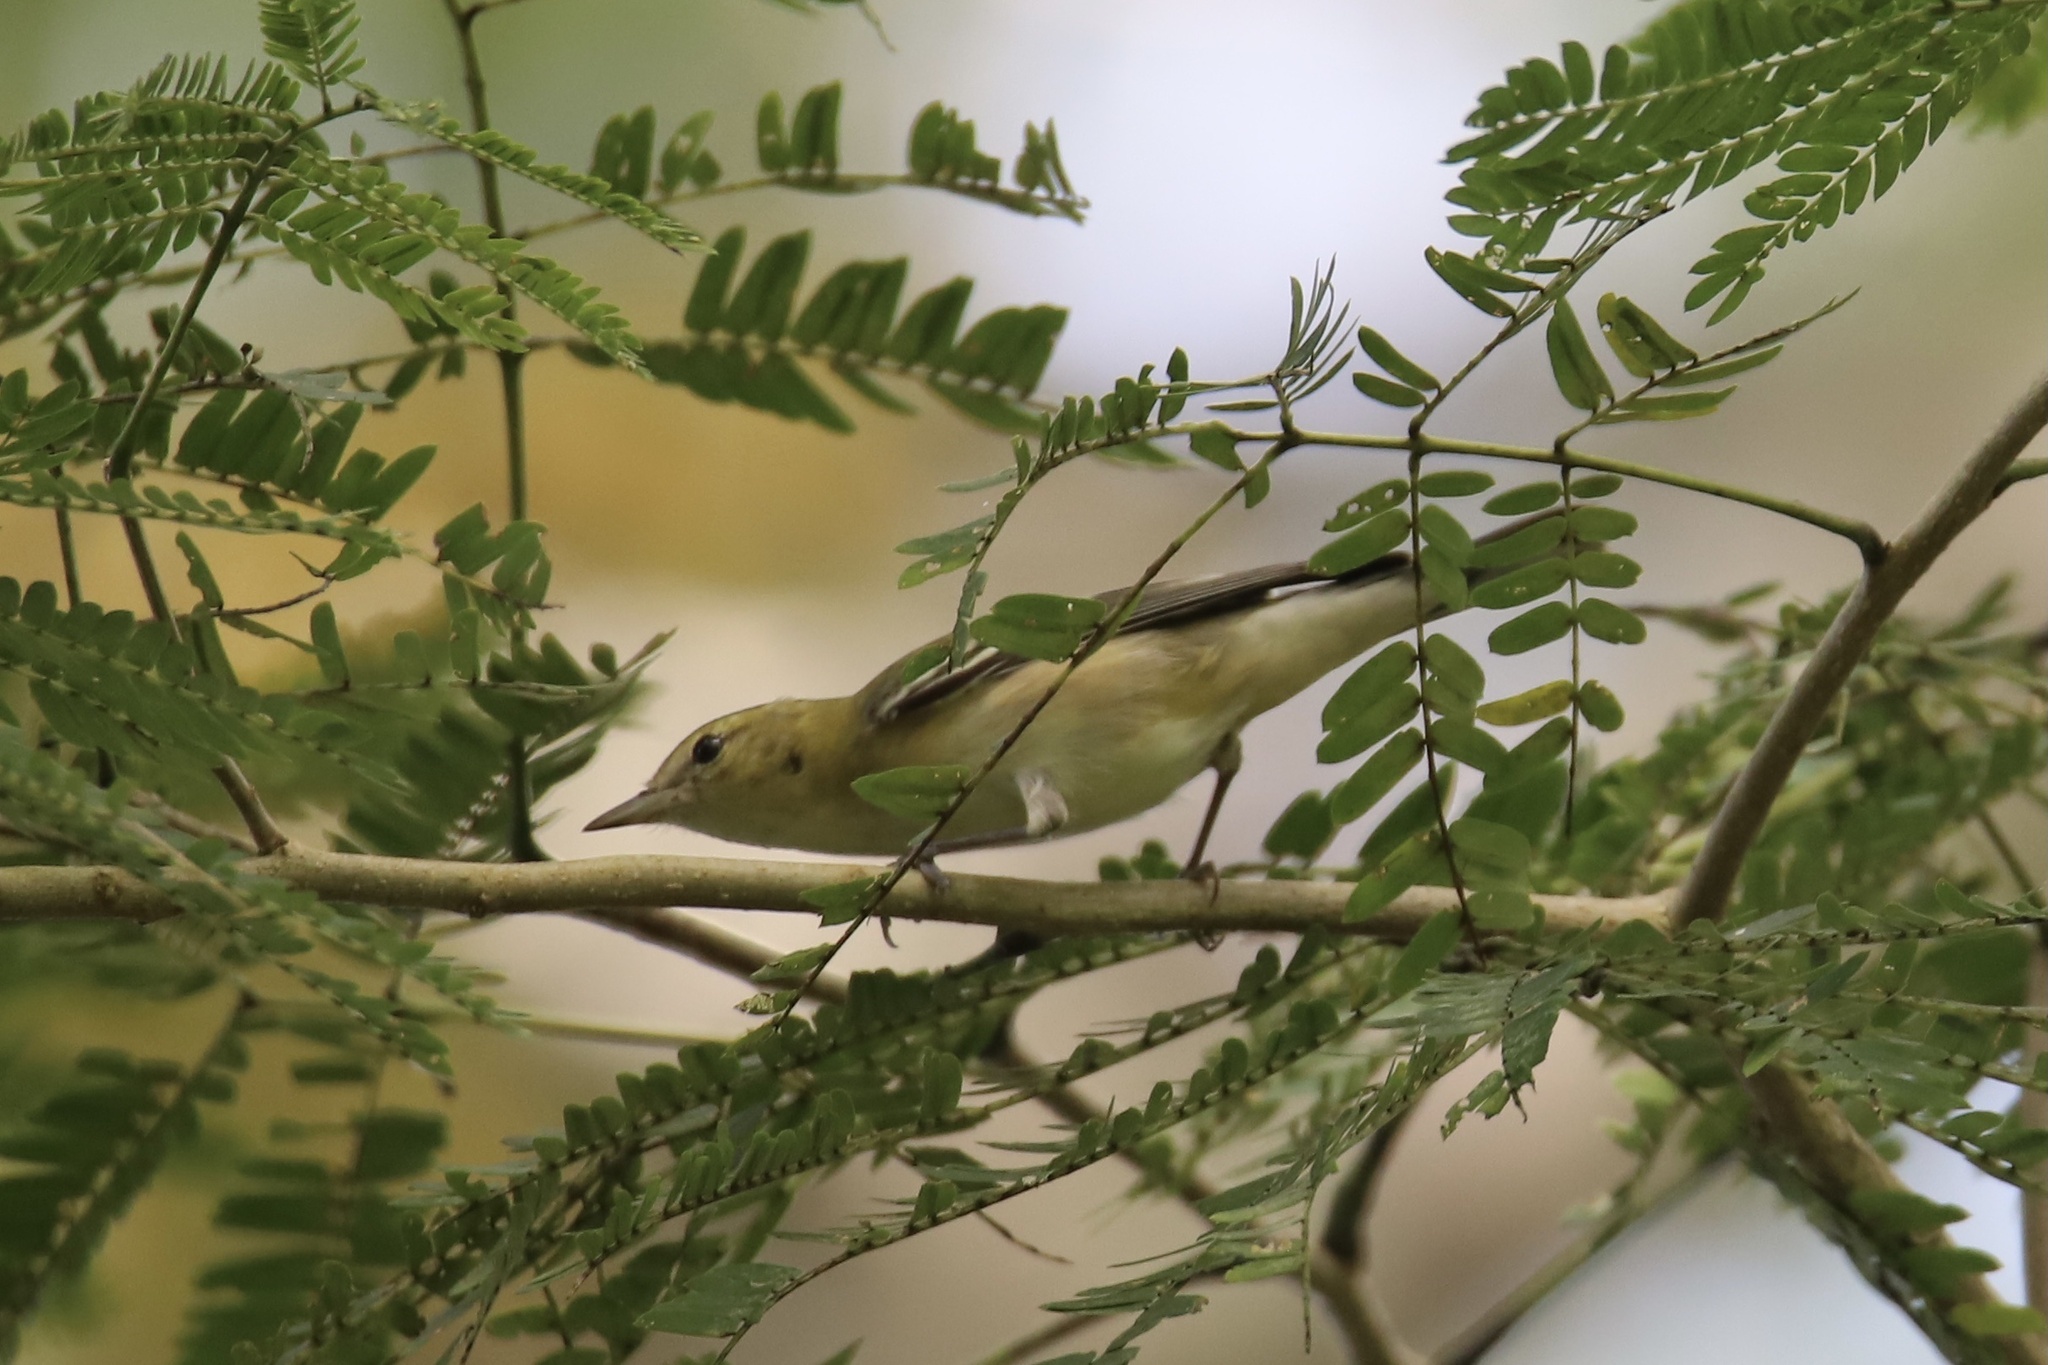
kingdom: Animalia
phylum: Chordata
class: Aves
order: Passeriformes
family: Parulidae
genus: Setophaga
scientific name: Setophaga castanea
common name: Bay-breasted warbler
